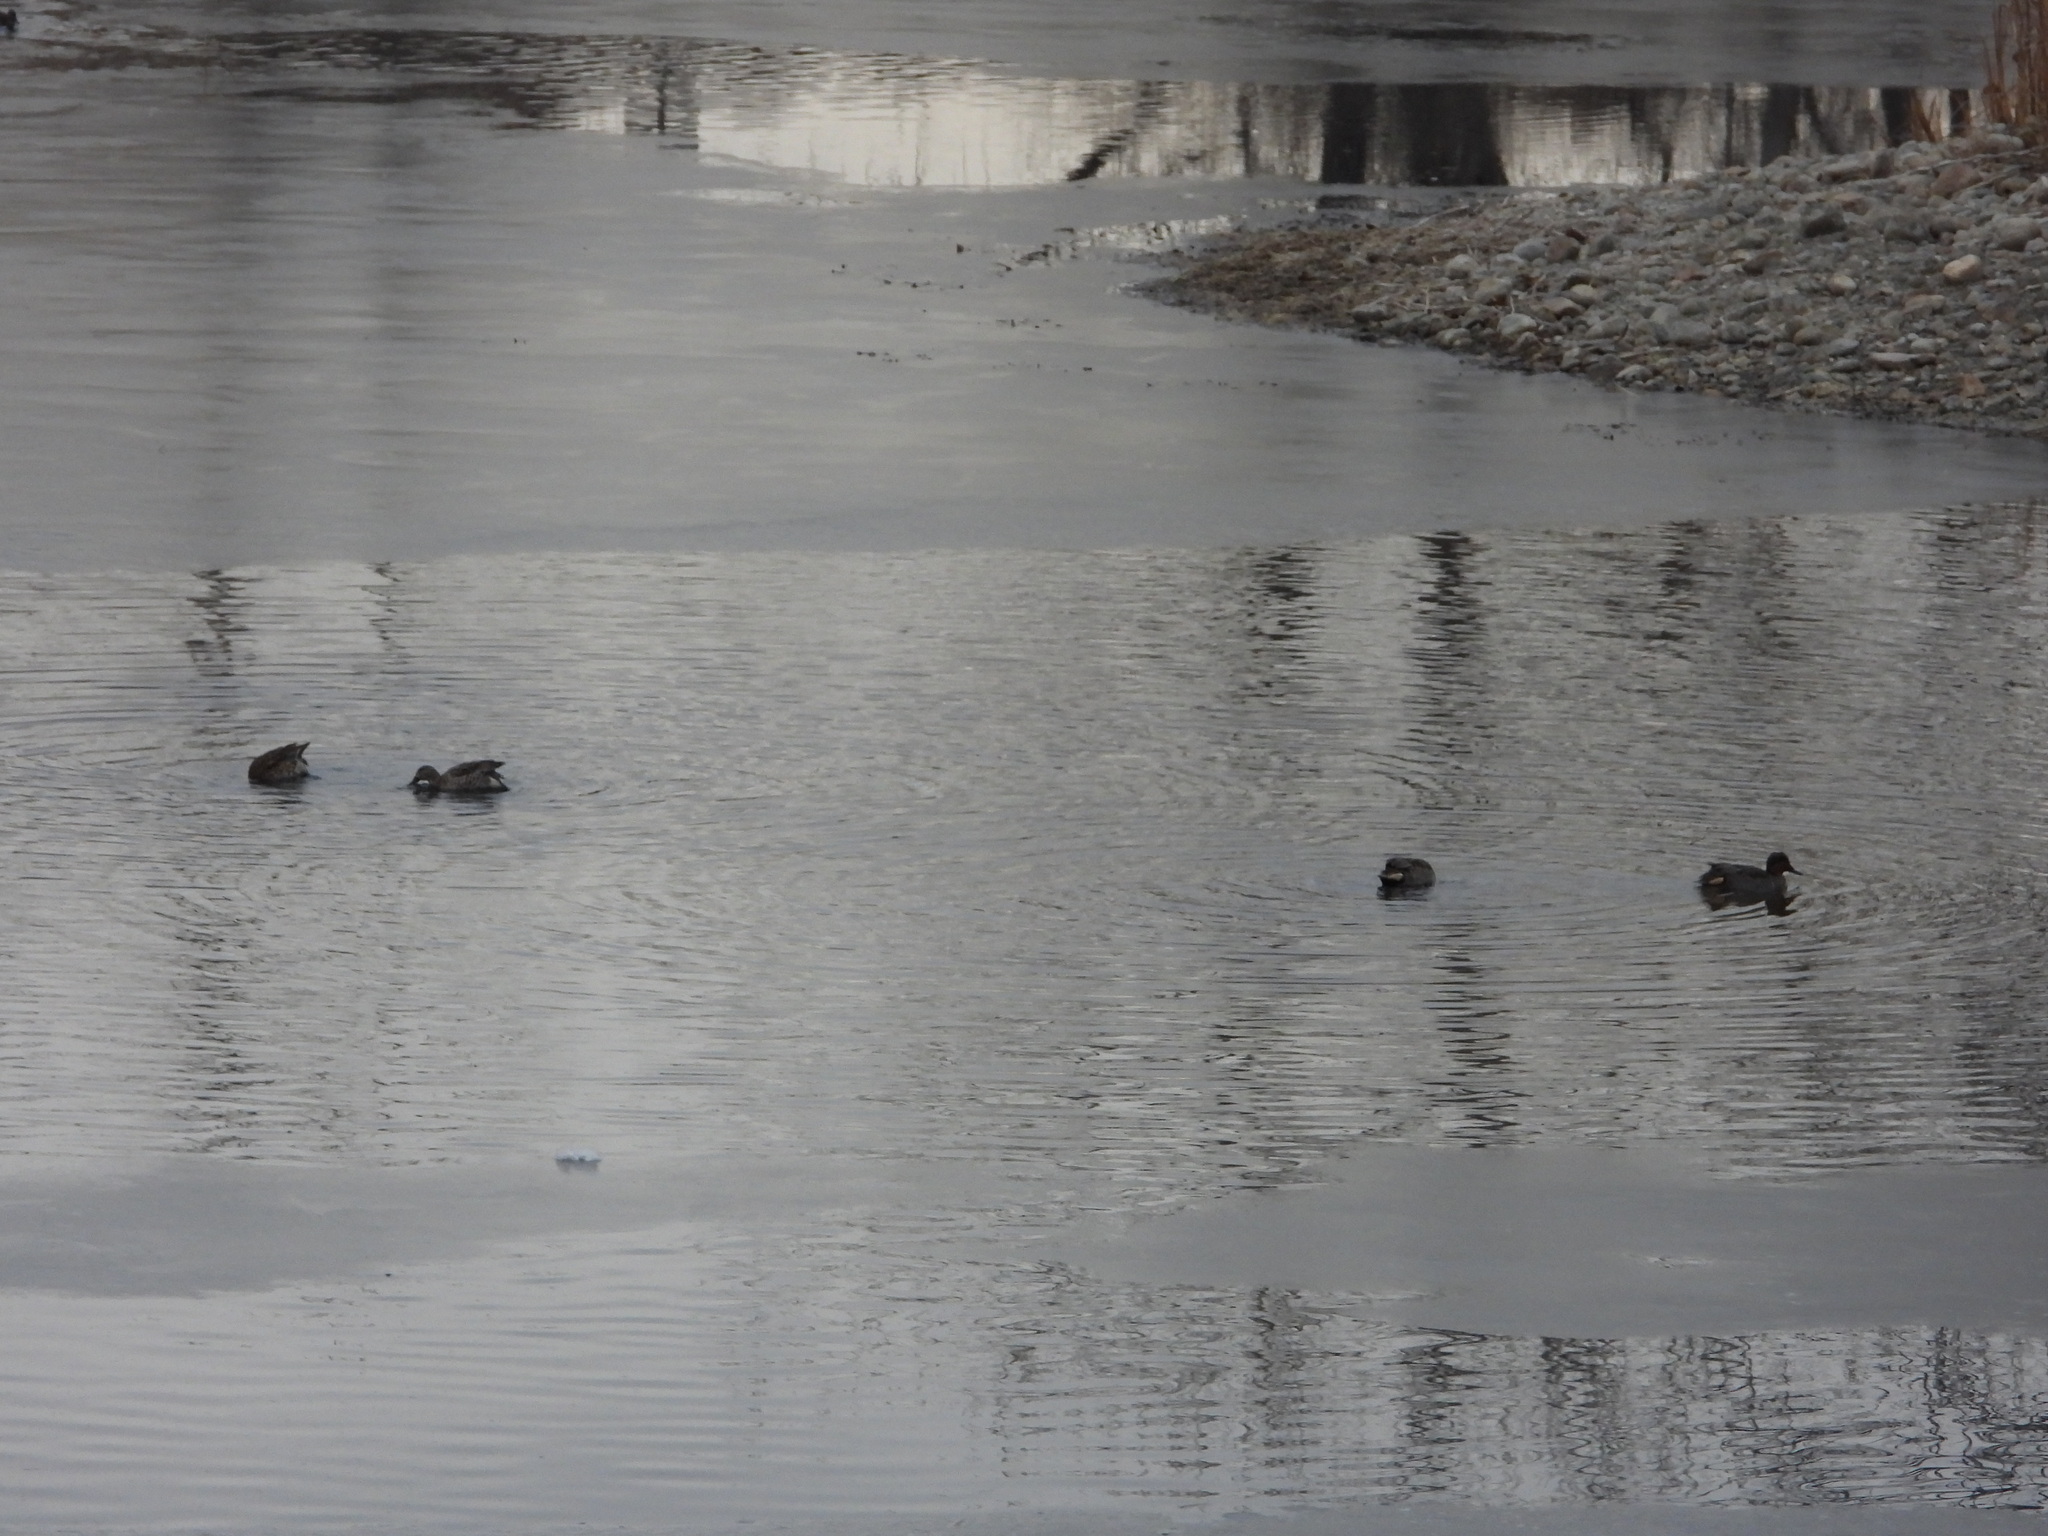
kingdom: Animalia
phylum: Chordata
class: Aves
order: Anseriformes
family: Anatidae
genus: Anas
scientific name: Anas crecca
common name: Eurasian teal
